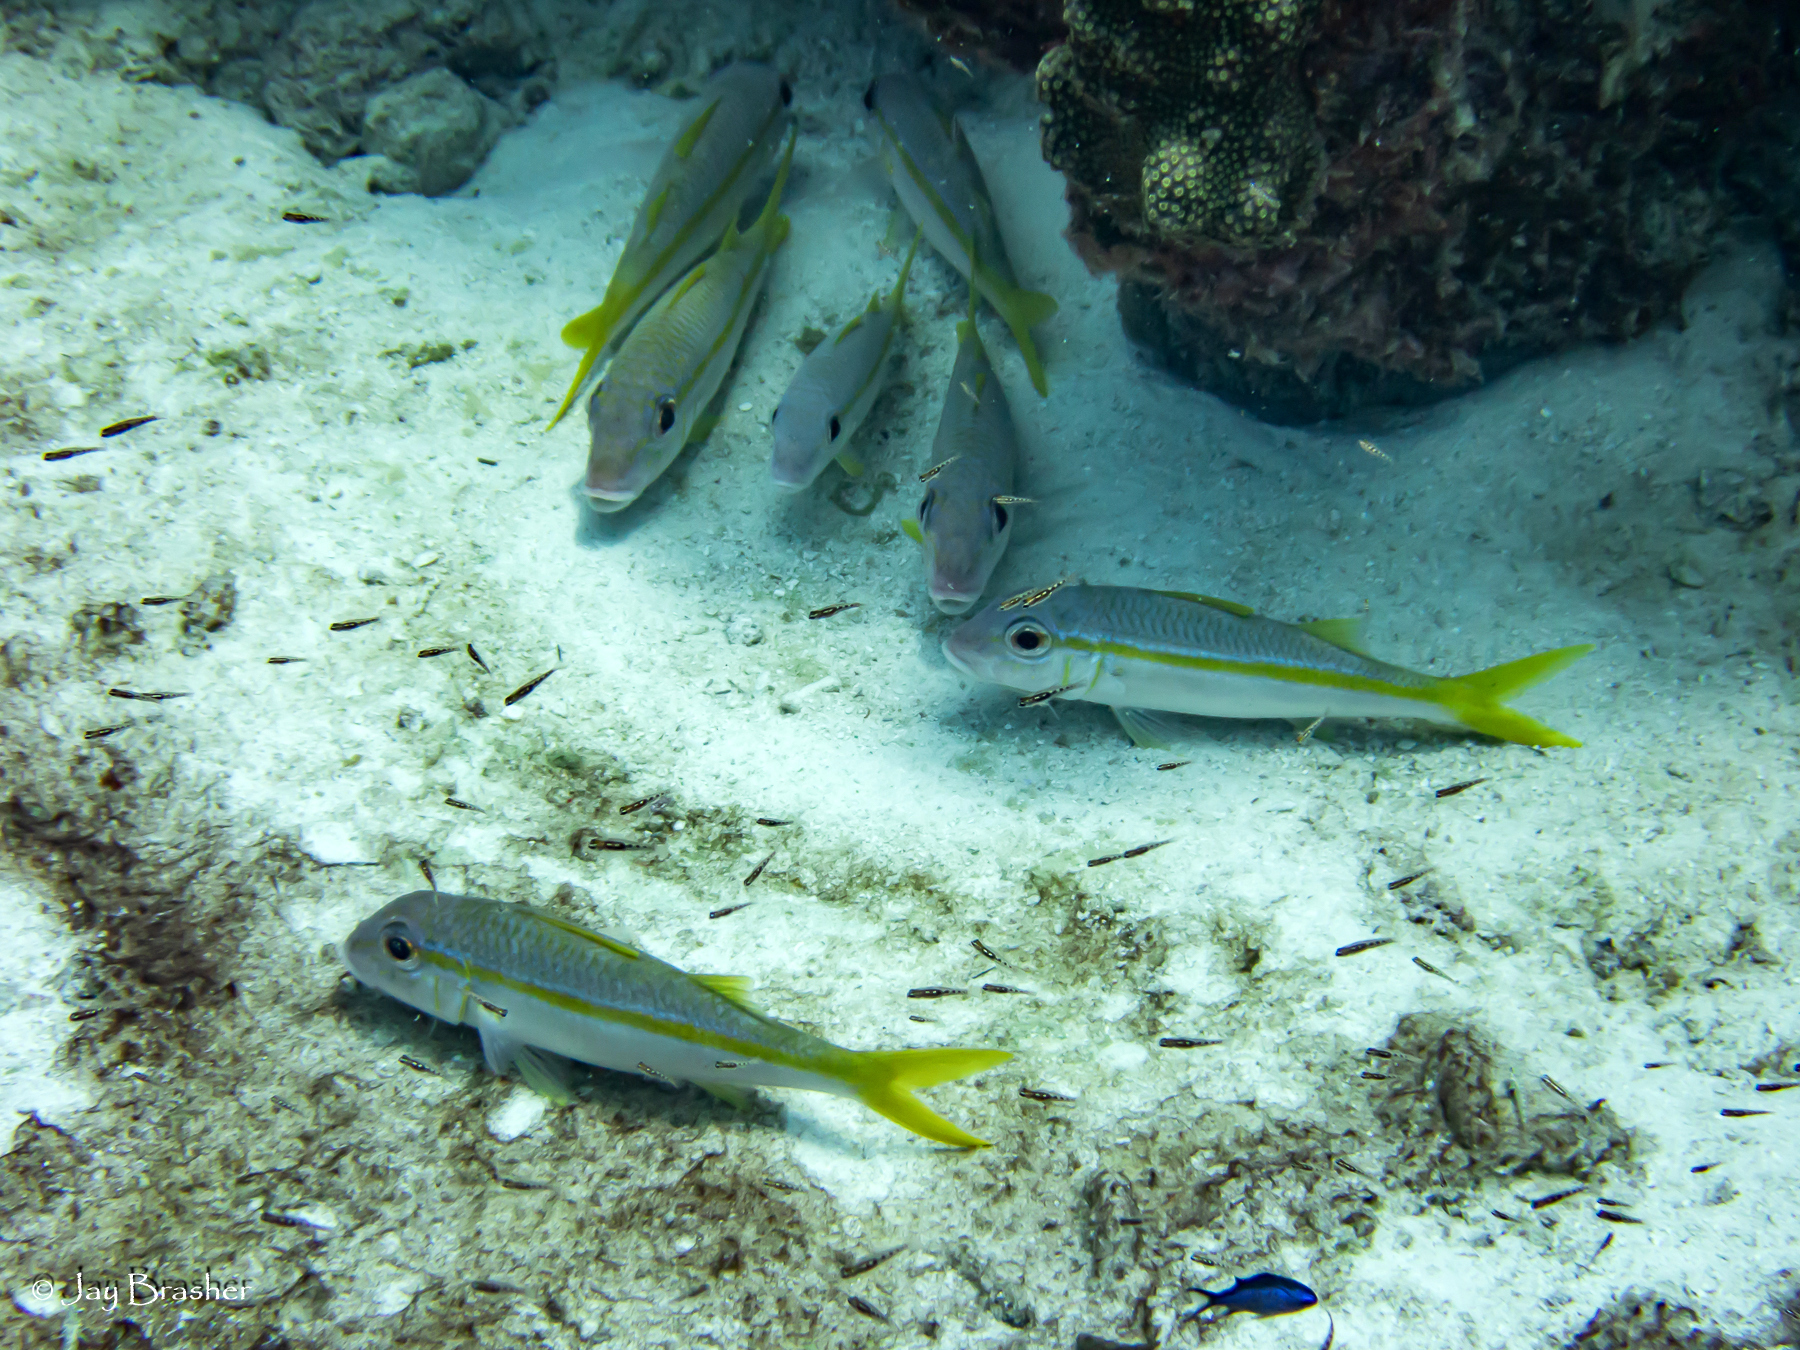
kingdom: Animalia
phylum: Chordata
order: Perciformes
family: Mullidae
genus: Mulloidichthys
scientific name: Mulloidichthys martinicus
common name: Yellow goatfish
